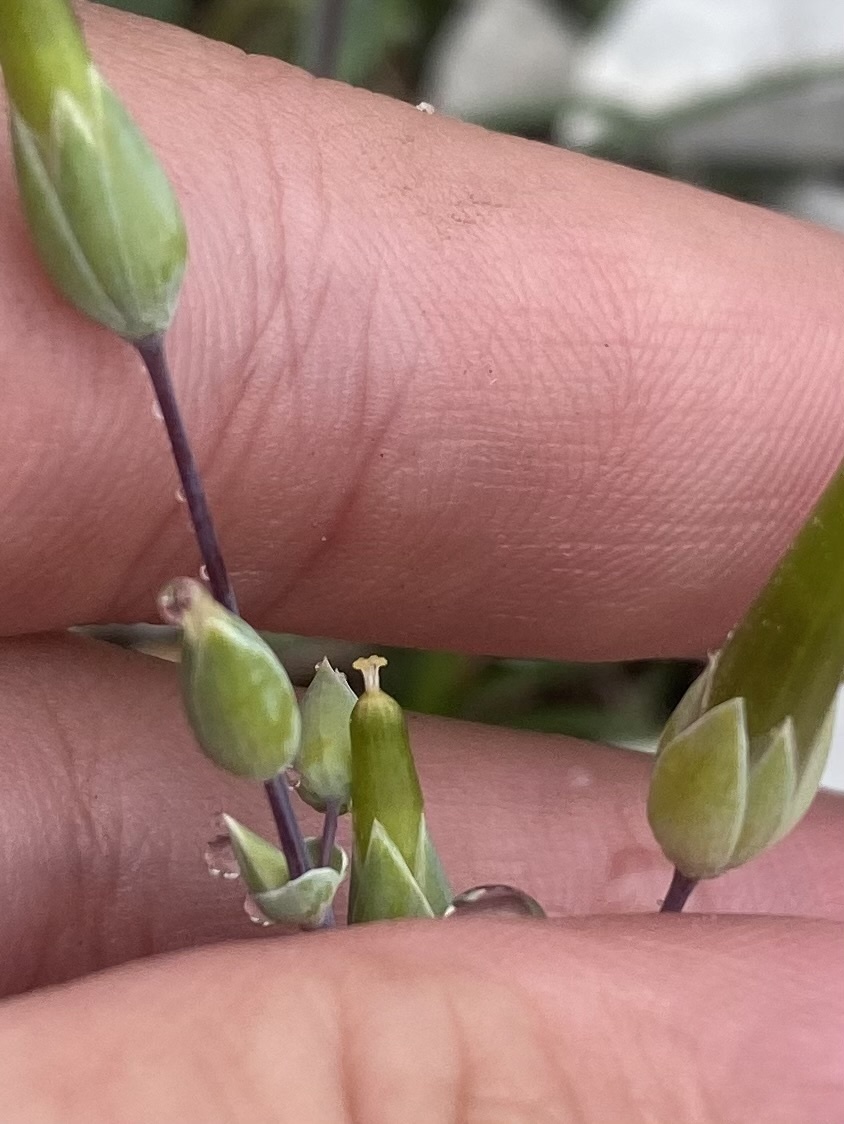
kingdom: Plantae
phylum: Tracheophyta
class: Magnoliopsida
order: Caryophyllales
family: Caryophyllaceae
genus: Holosteum
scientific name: Holosteum umbellatum
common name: Jagged chickweed
